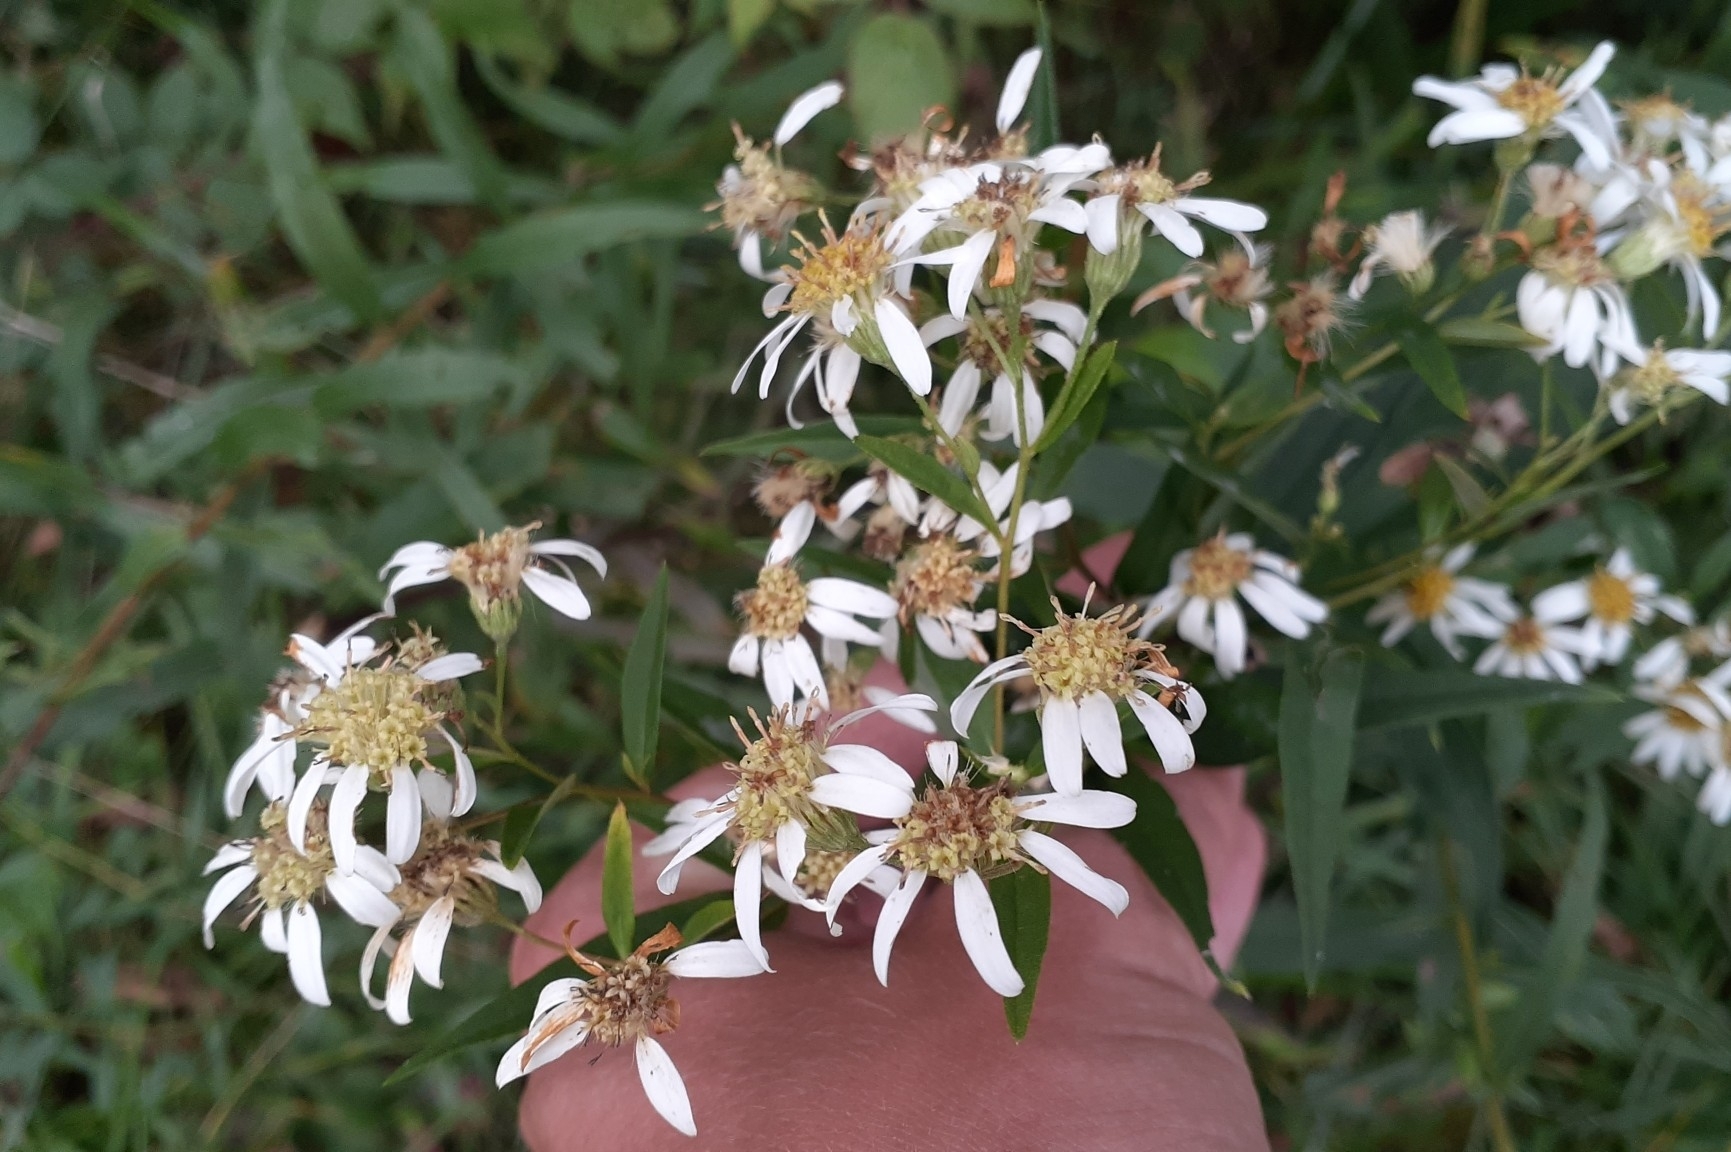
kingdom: Plantae
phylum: Tracheophyta
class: Magnoliopsida
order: Asterales
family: Asteraceae
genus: Doellingeria
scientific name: Doellingeria umbellata
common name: Flat-top white aster
